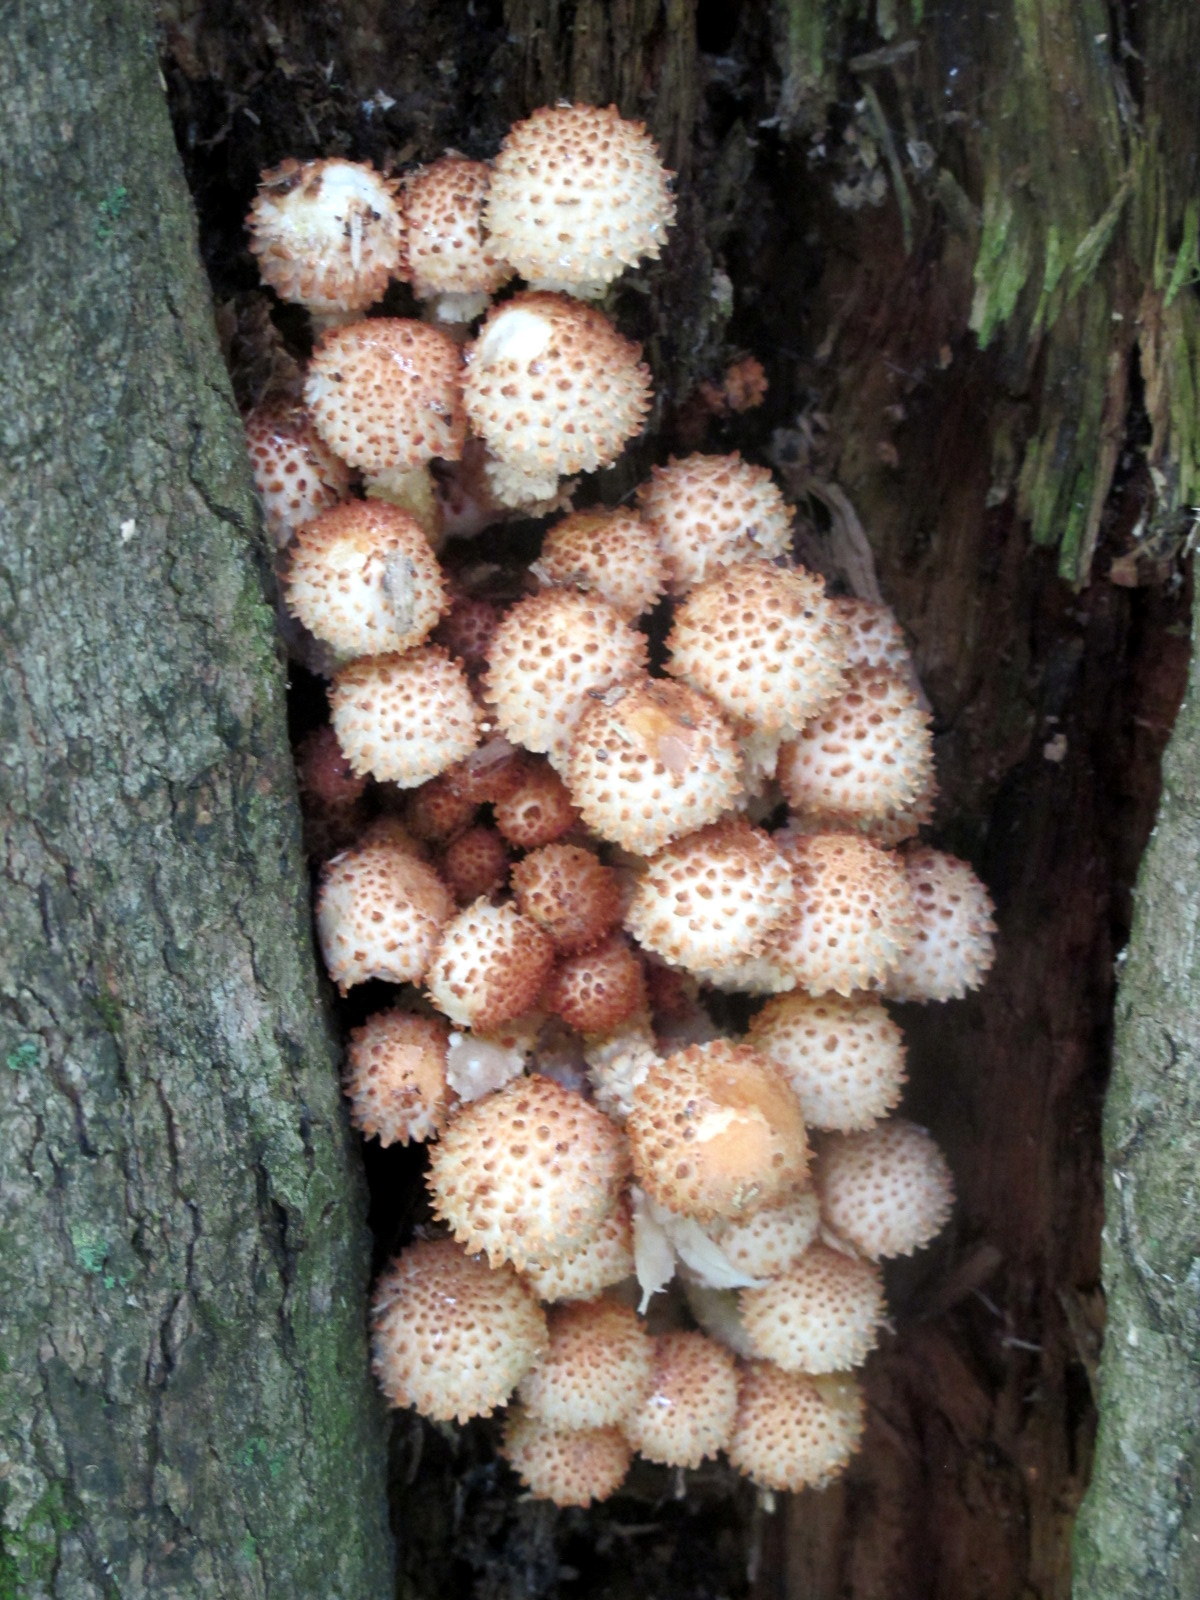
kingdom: Fungi
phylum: Basidiomycota
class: Agaricomycetes
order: Agaricales
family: Strophariaceae
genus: Pholiota
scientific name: Pholiota squarrosoides
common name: Sharp-scaly pholiota
